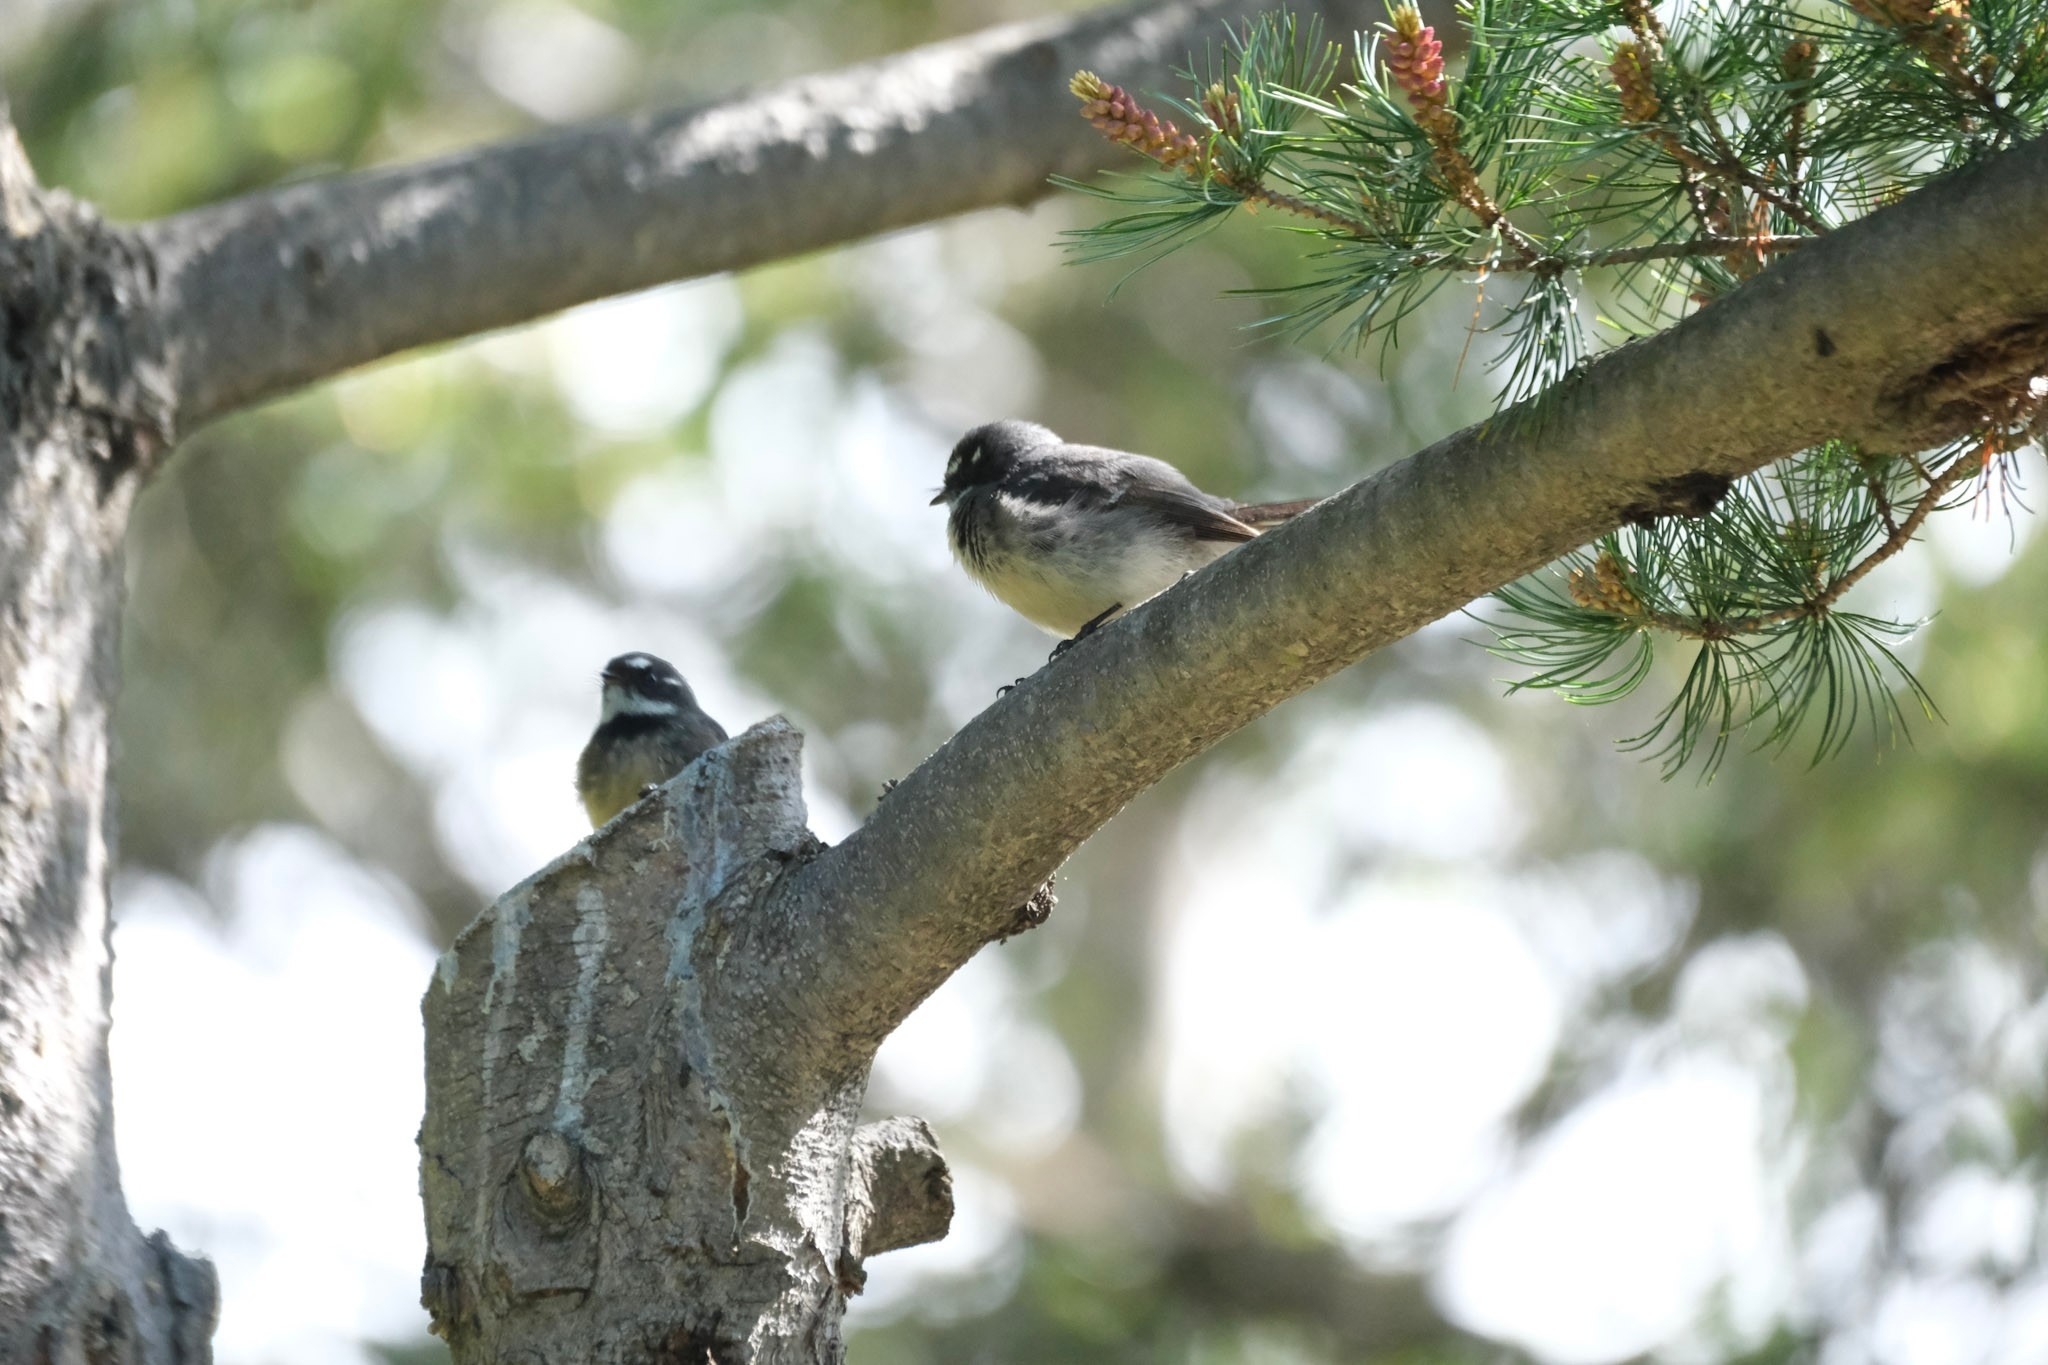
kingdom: Animalia
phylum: Chordata
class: Aves
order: Passeriformes
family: Rhipiduridae
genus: Rhipidura
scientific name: Rhipidura albiscapa
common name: Grey fantail
